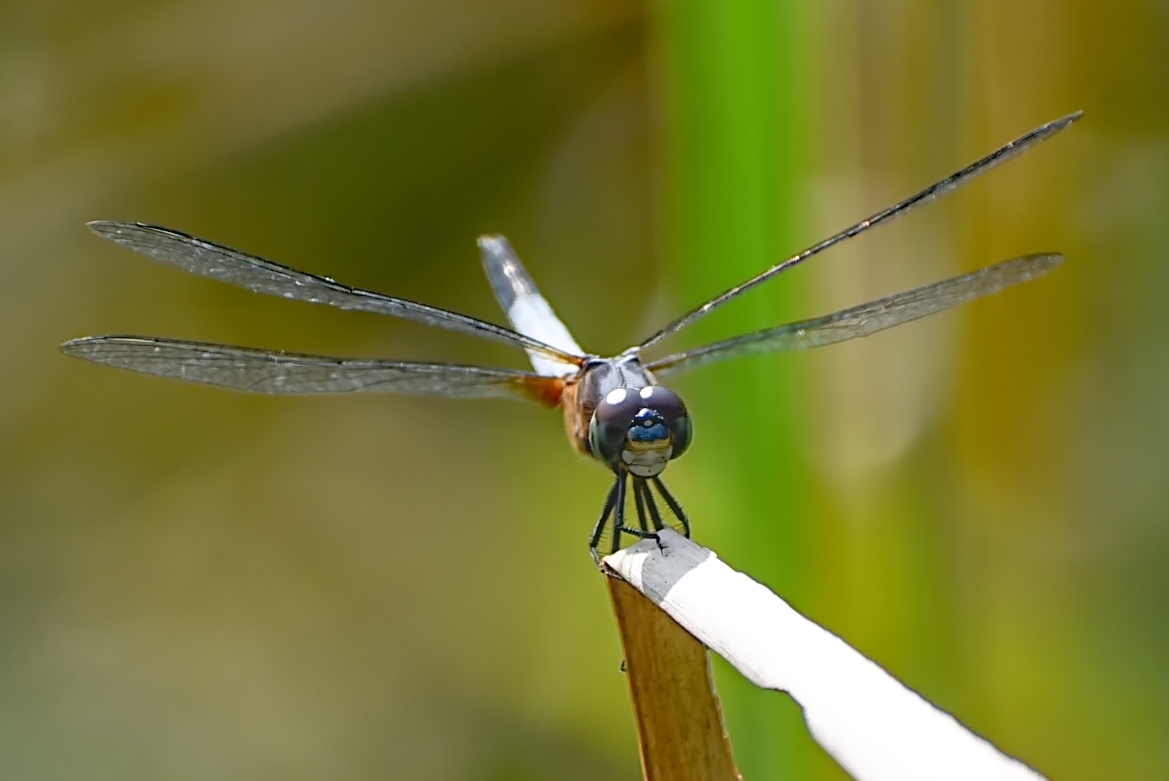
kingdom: Animalia
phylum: Arthropoda
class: Insecta
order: Odonata
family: Libellulidae
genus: Brachydiplax
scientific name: Brachydiplax chalybea
